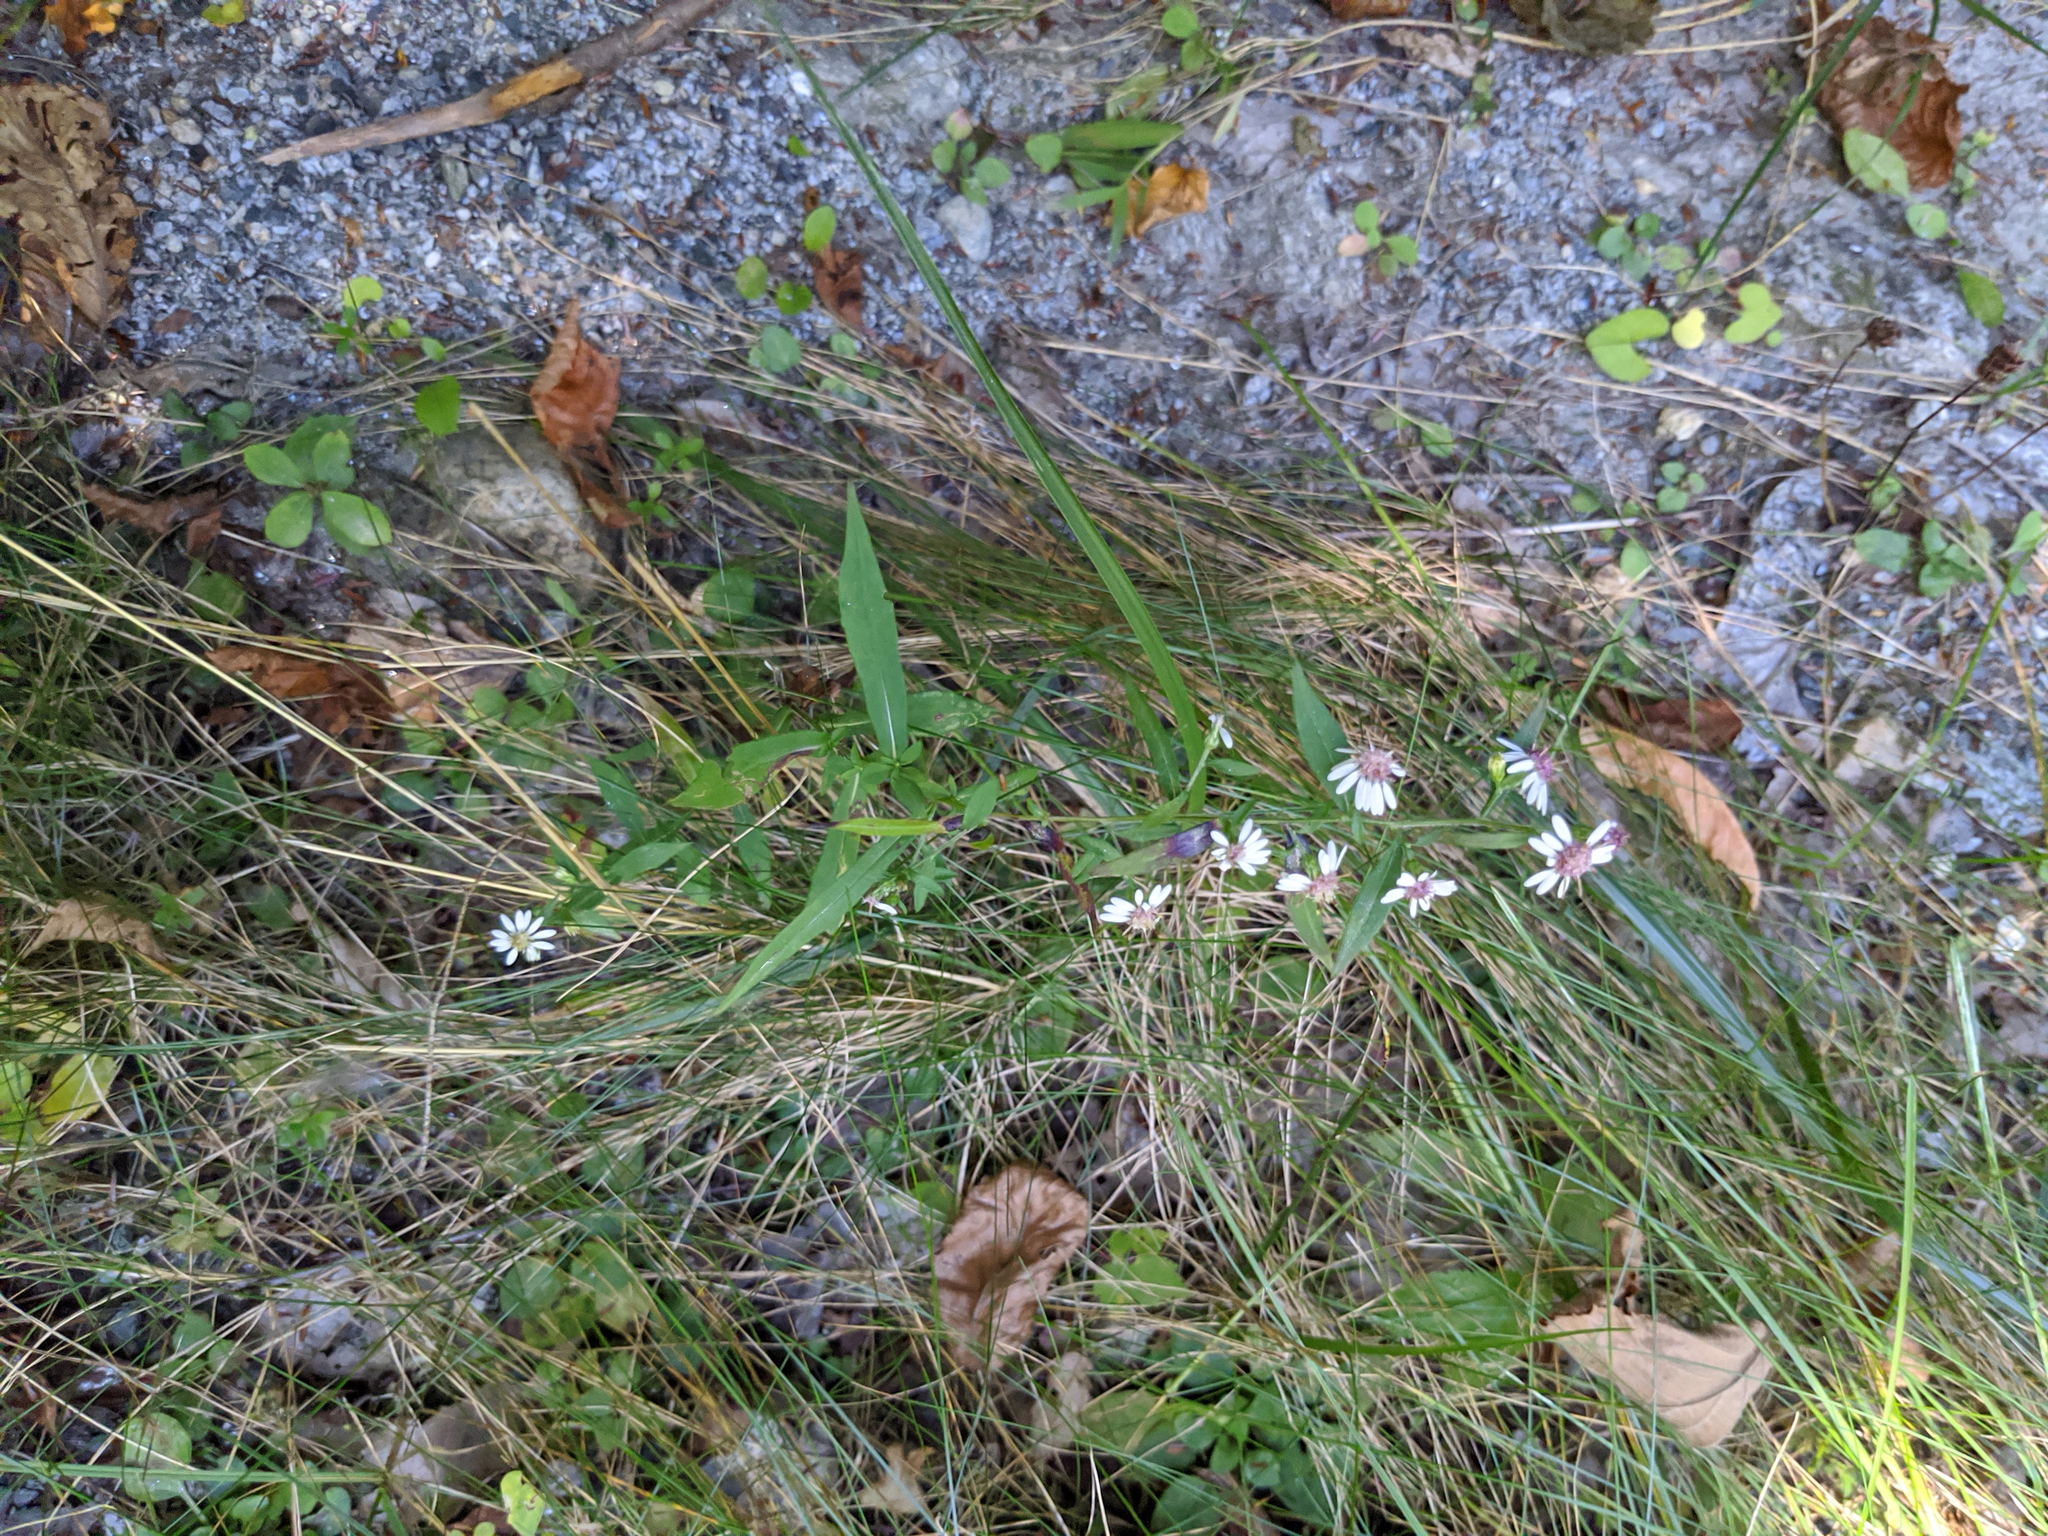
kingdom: Plantae
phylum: Tracheophyta
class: Magnoliopsida
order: Asterales
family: Asteraceae
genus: Symphyotrichum
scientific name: Symphyotrichum lateriflorum
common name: Calico aster
